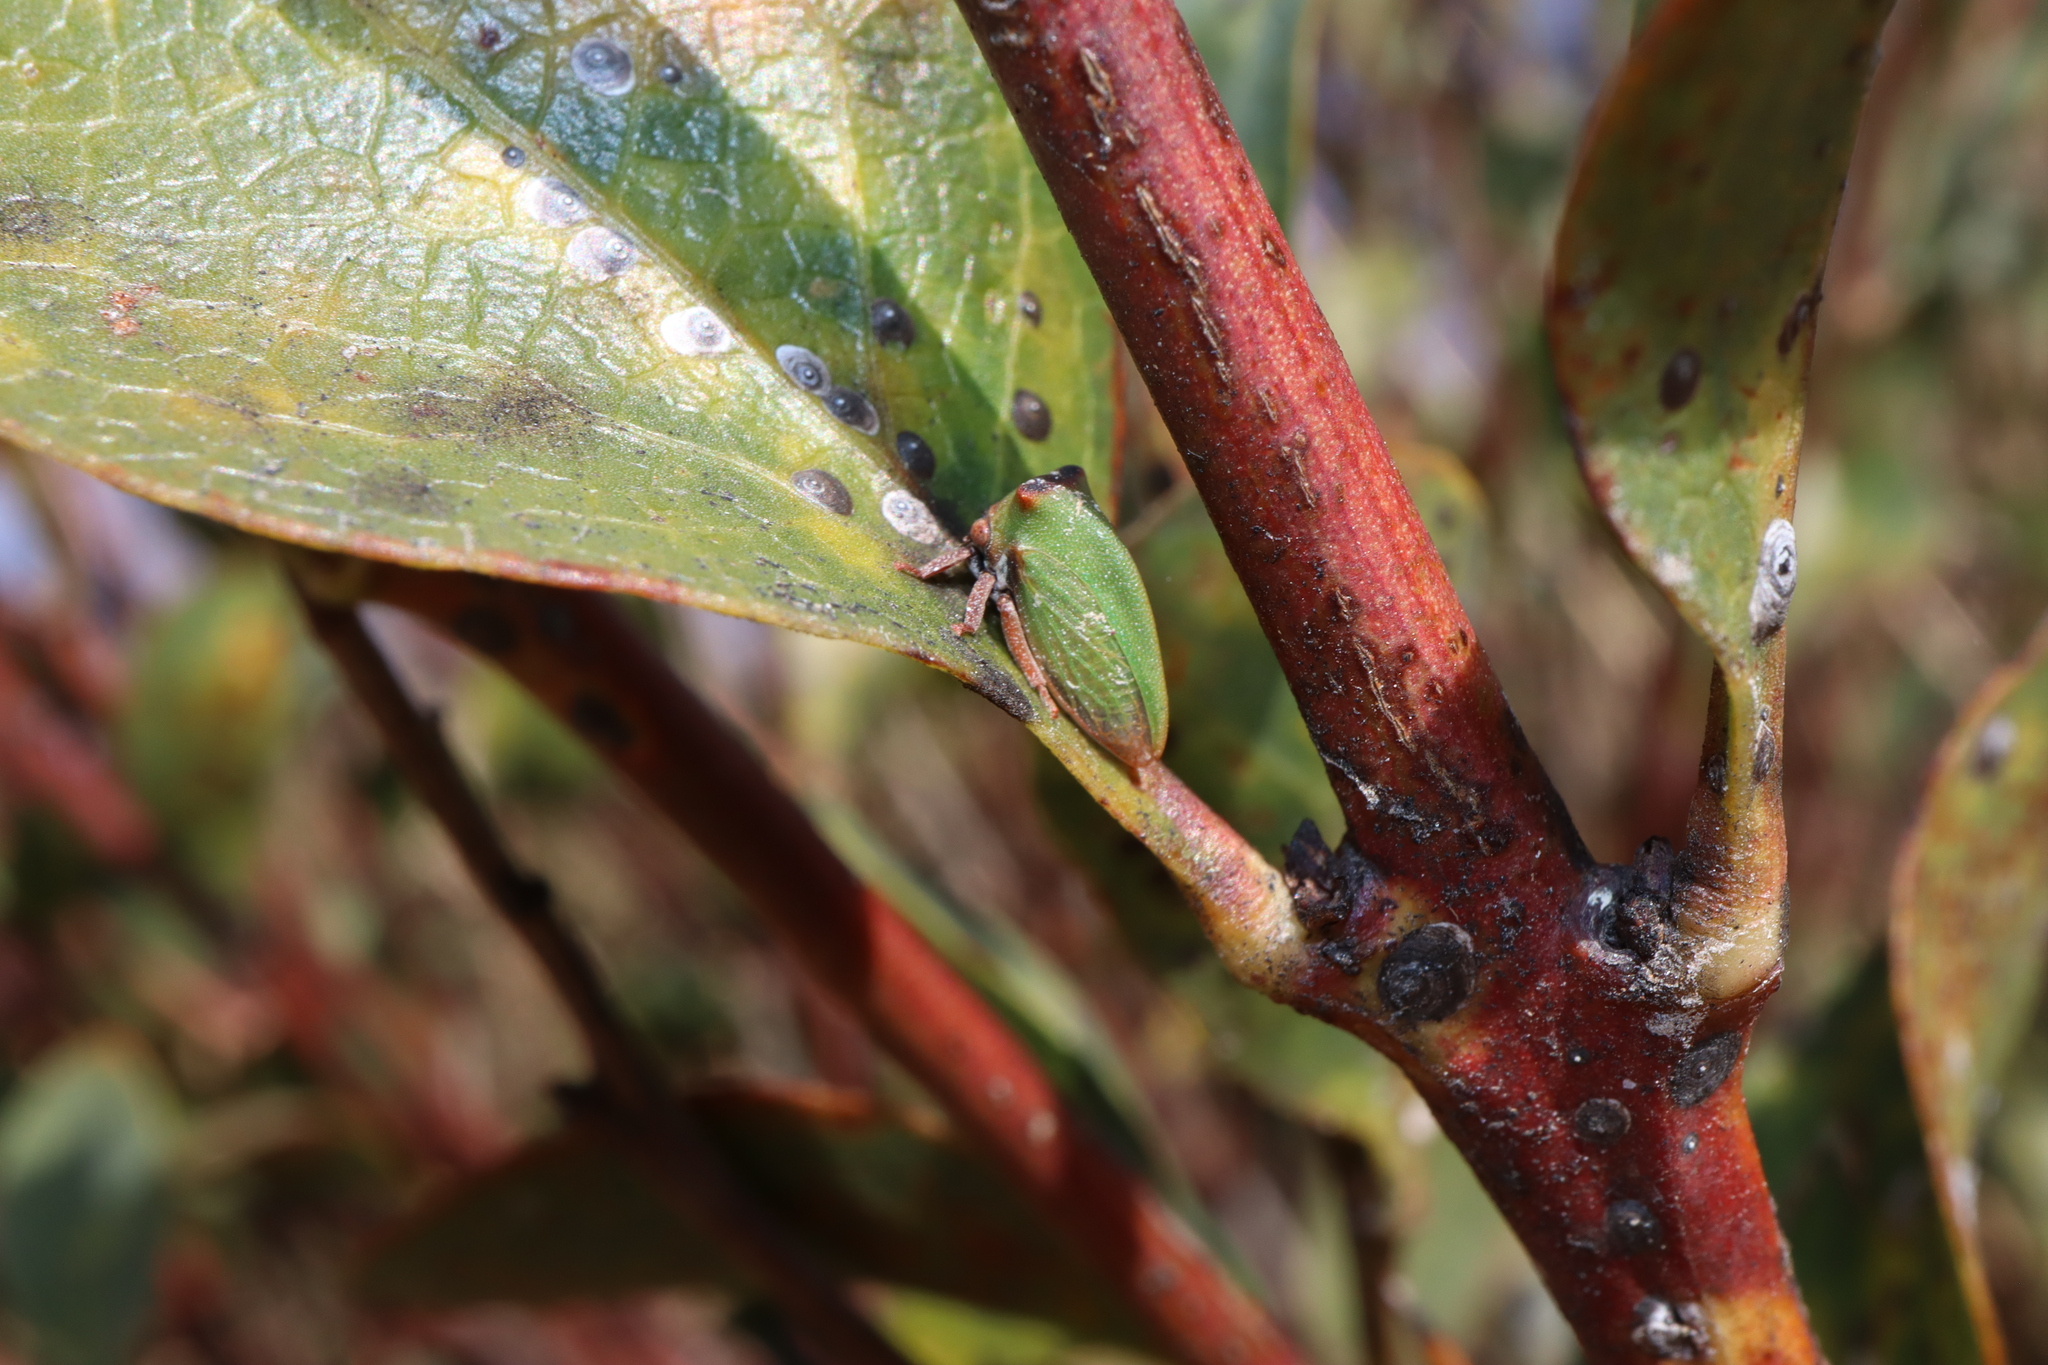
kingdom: Animalia
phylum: Arthropoda
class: Insecta
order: Hemiptera
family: Membracidae
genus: Sextius
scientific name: Sextius virescens
